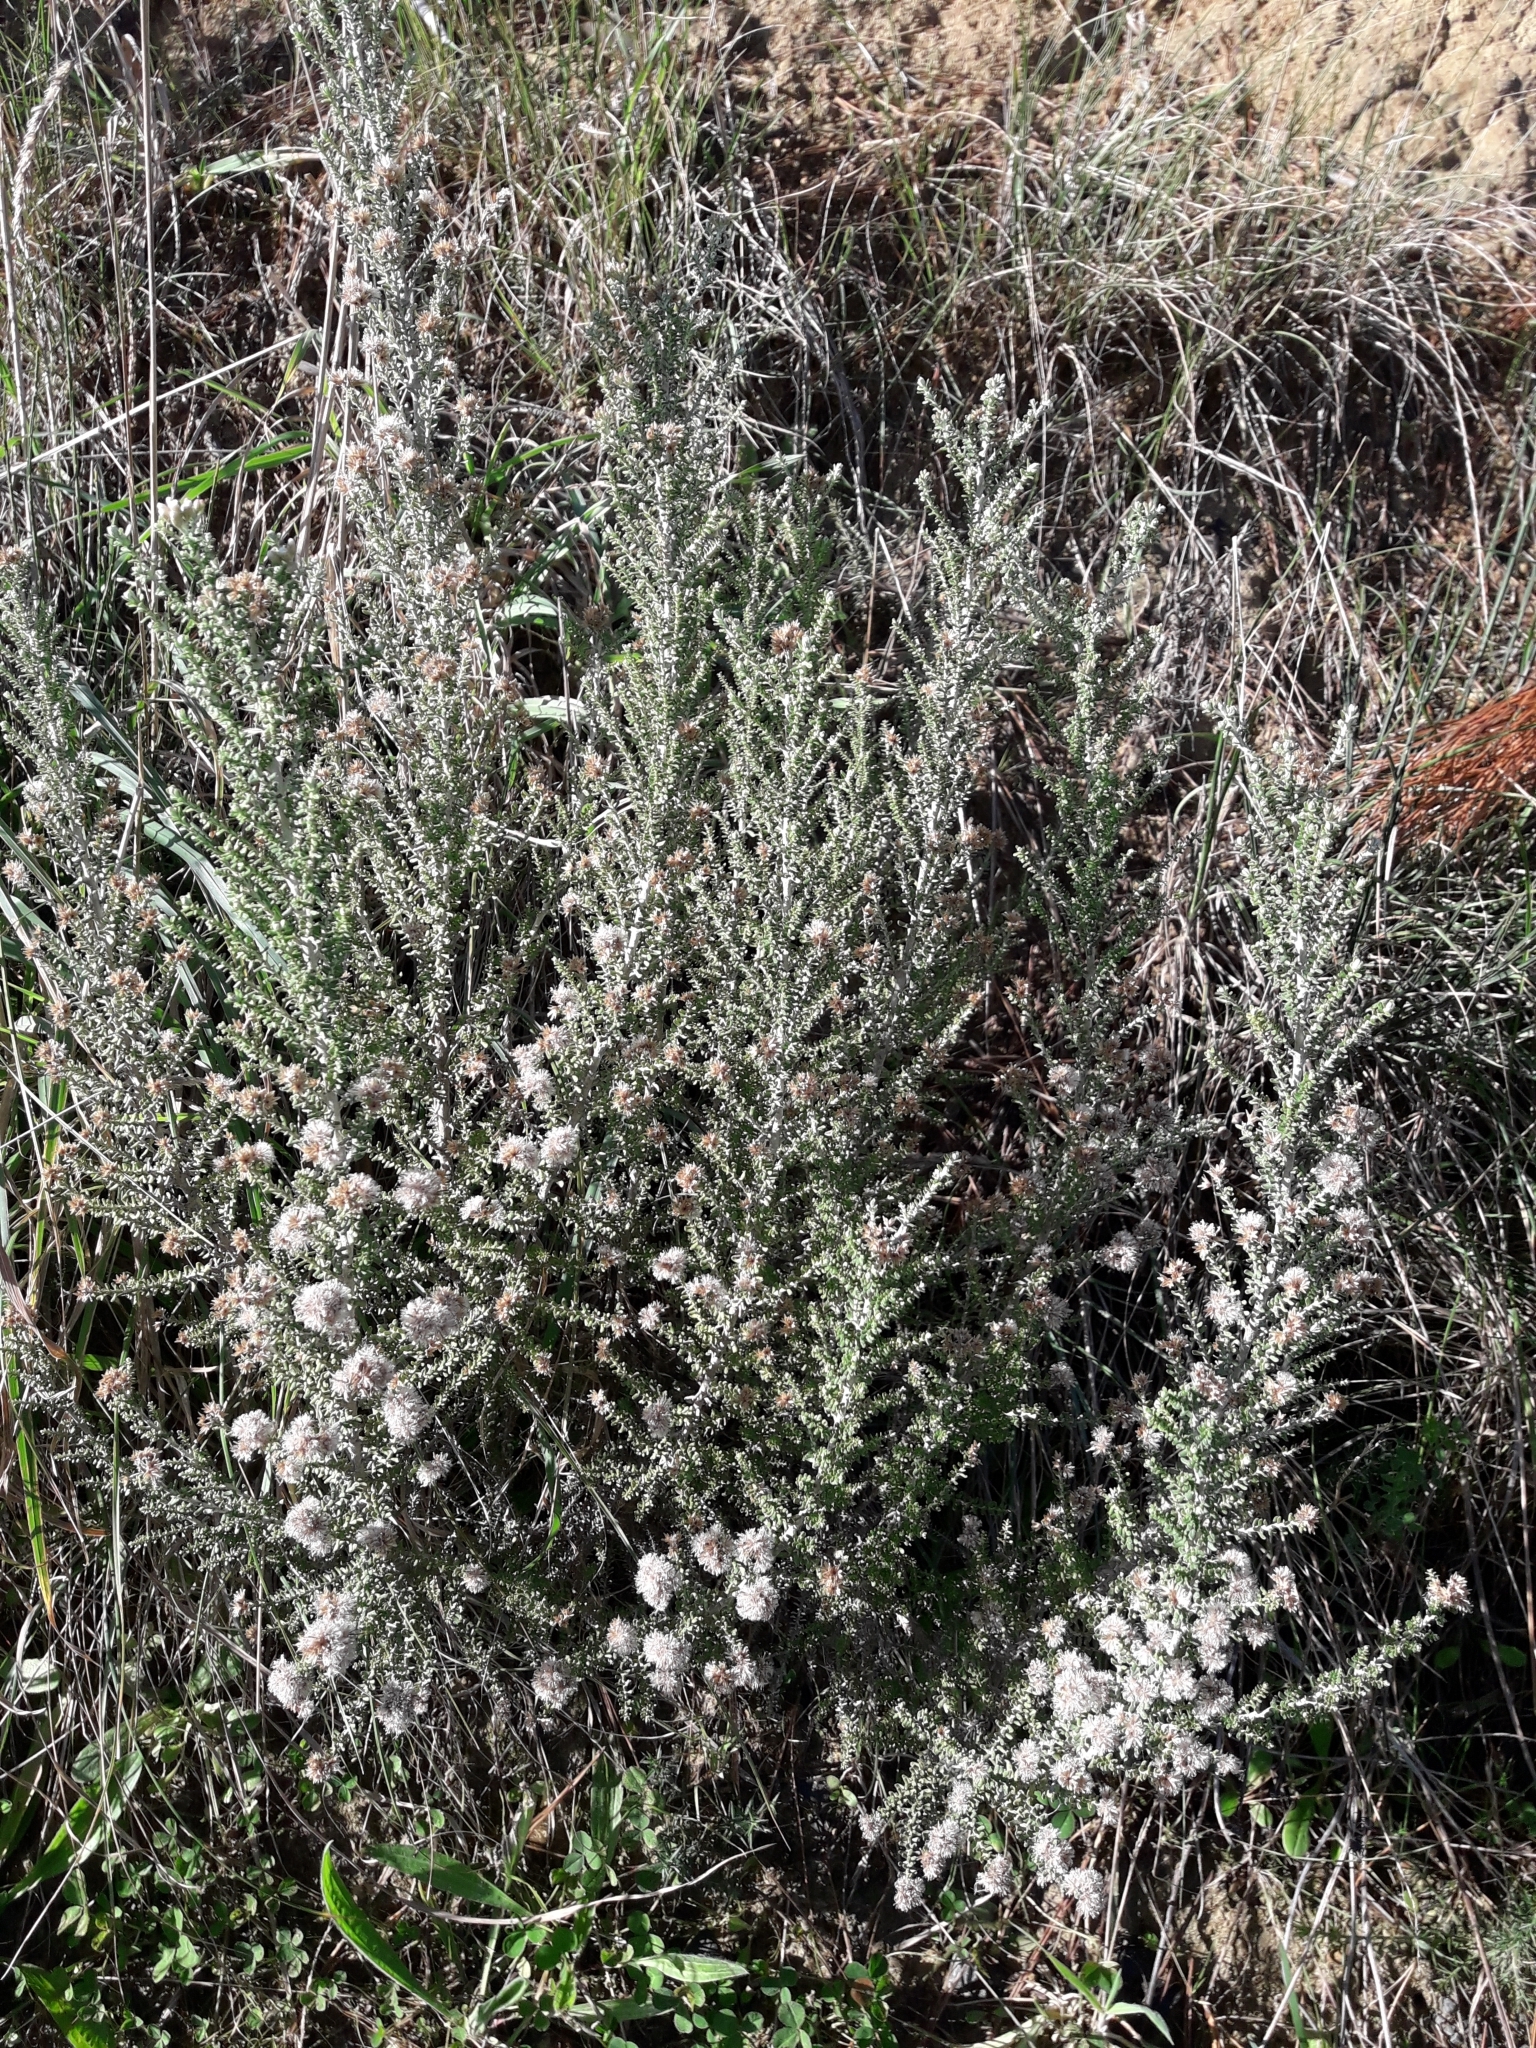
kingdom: Plantae
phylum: Tracheophyta
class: Magnoliopsida
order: Asterales
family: Asteraceae
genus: Ozothamnus
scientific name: Ozothamnus leptophyllus
